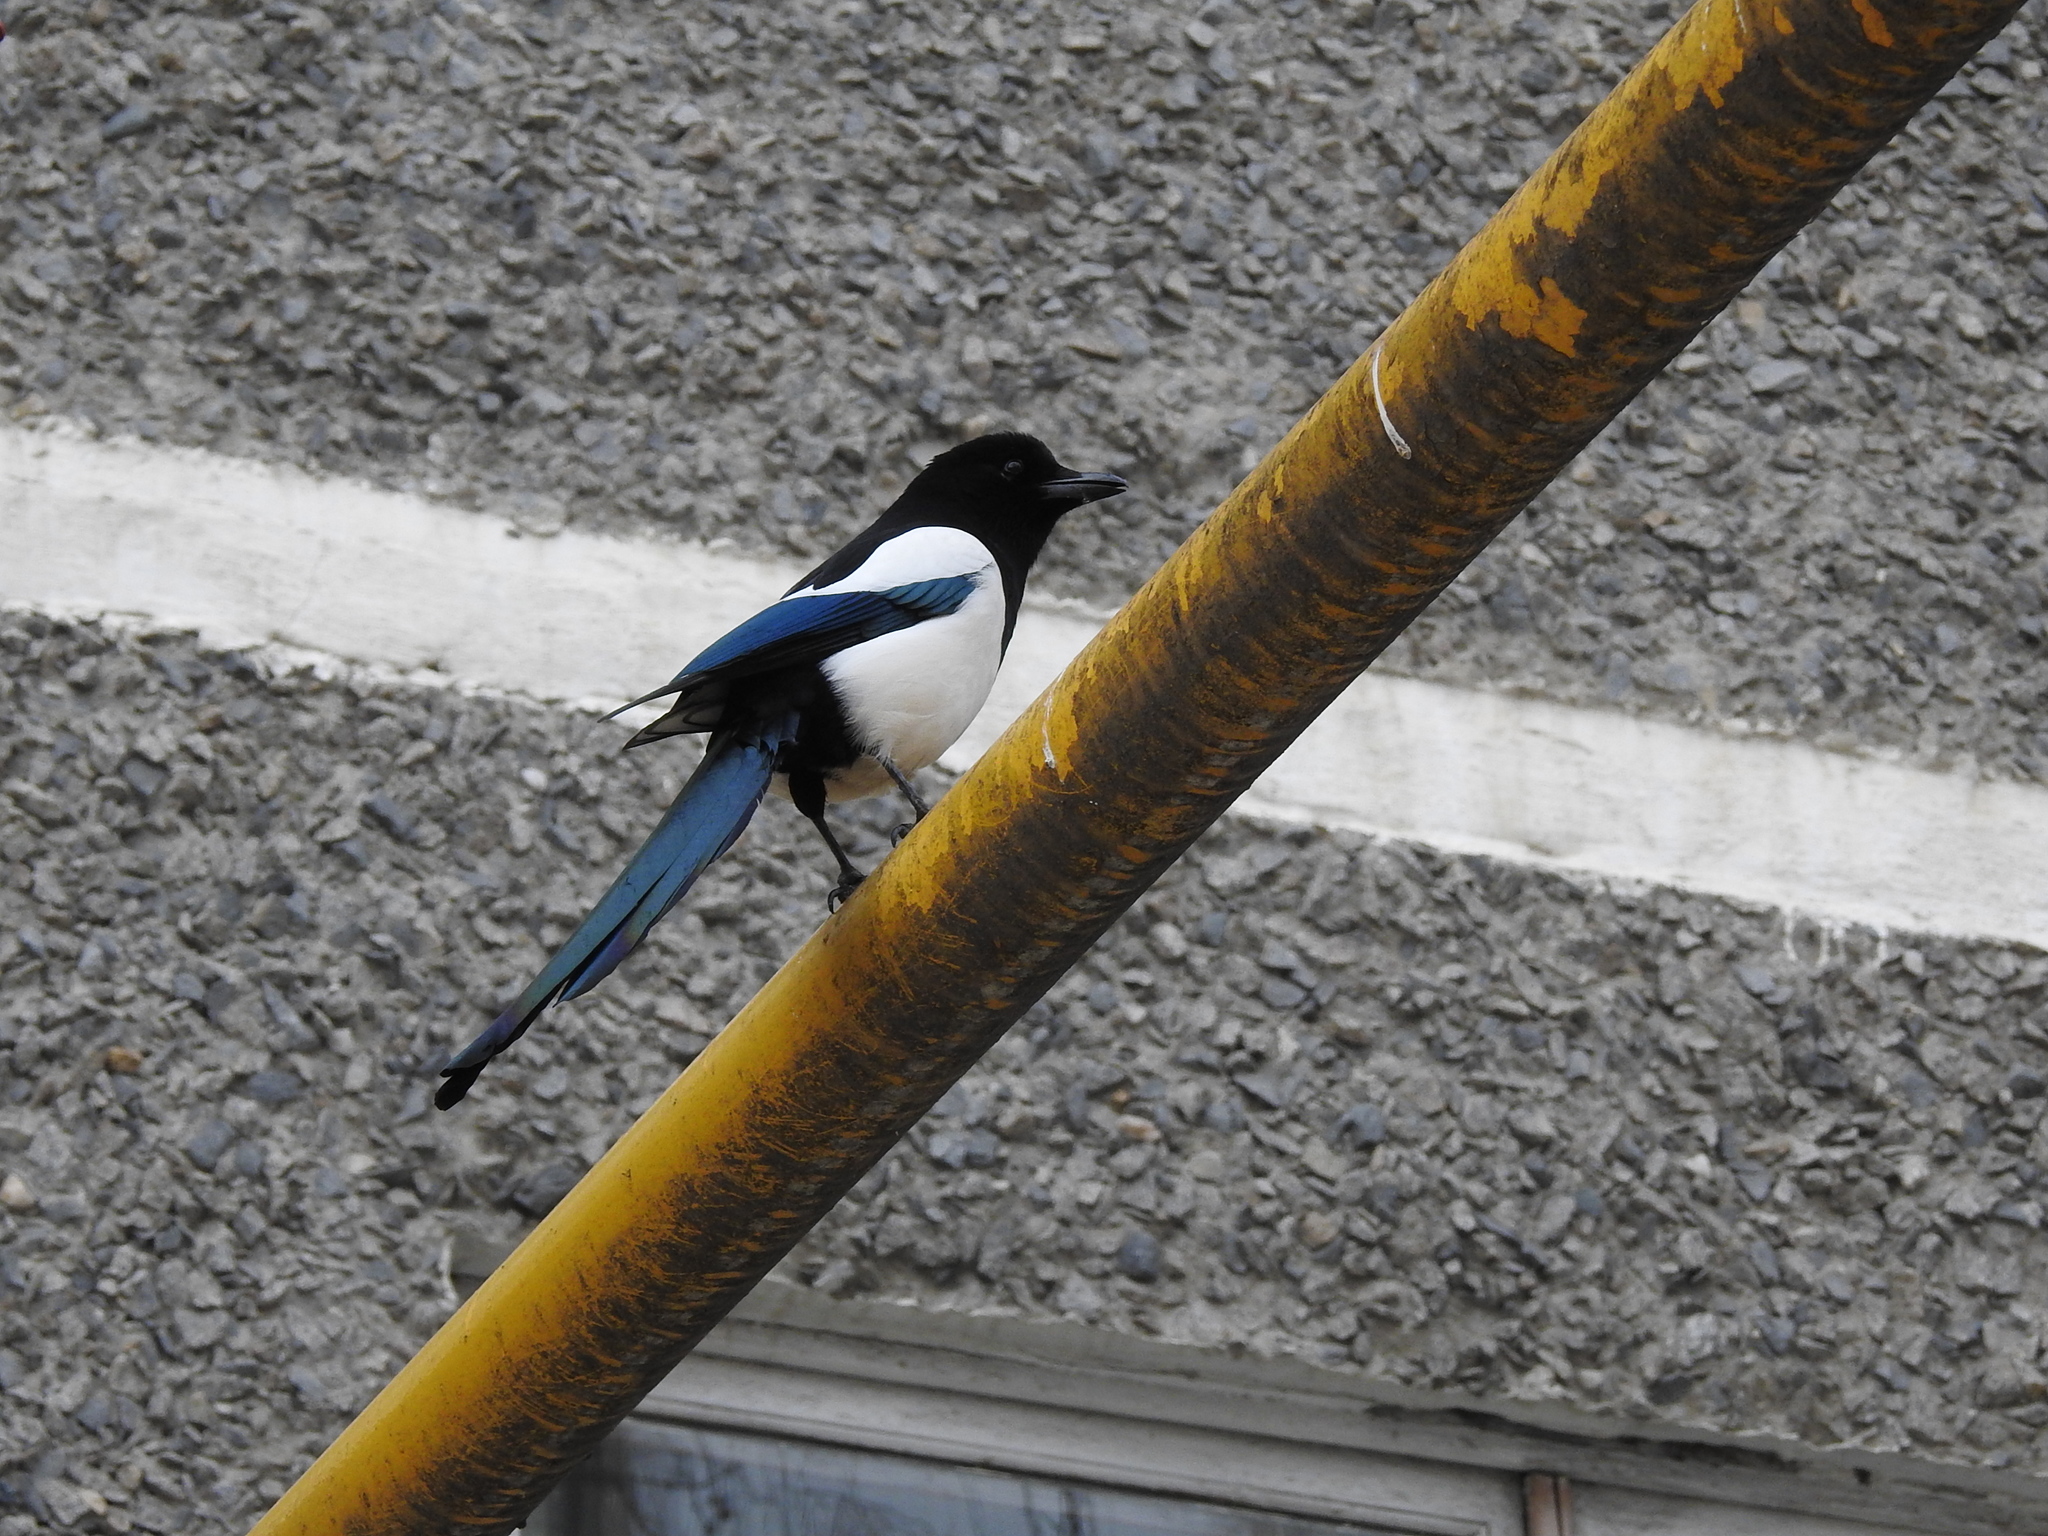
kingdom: Animalia
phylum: Chordata
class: Aves
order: Passeriformes
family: Corvidae
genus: Pica
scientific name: Pica pica
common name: Eurasian magpie
